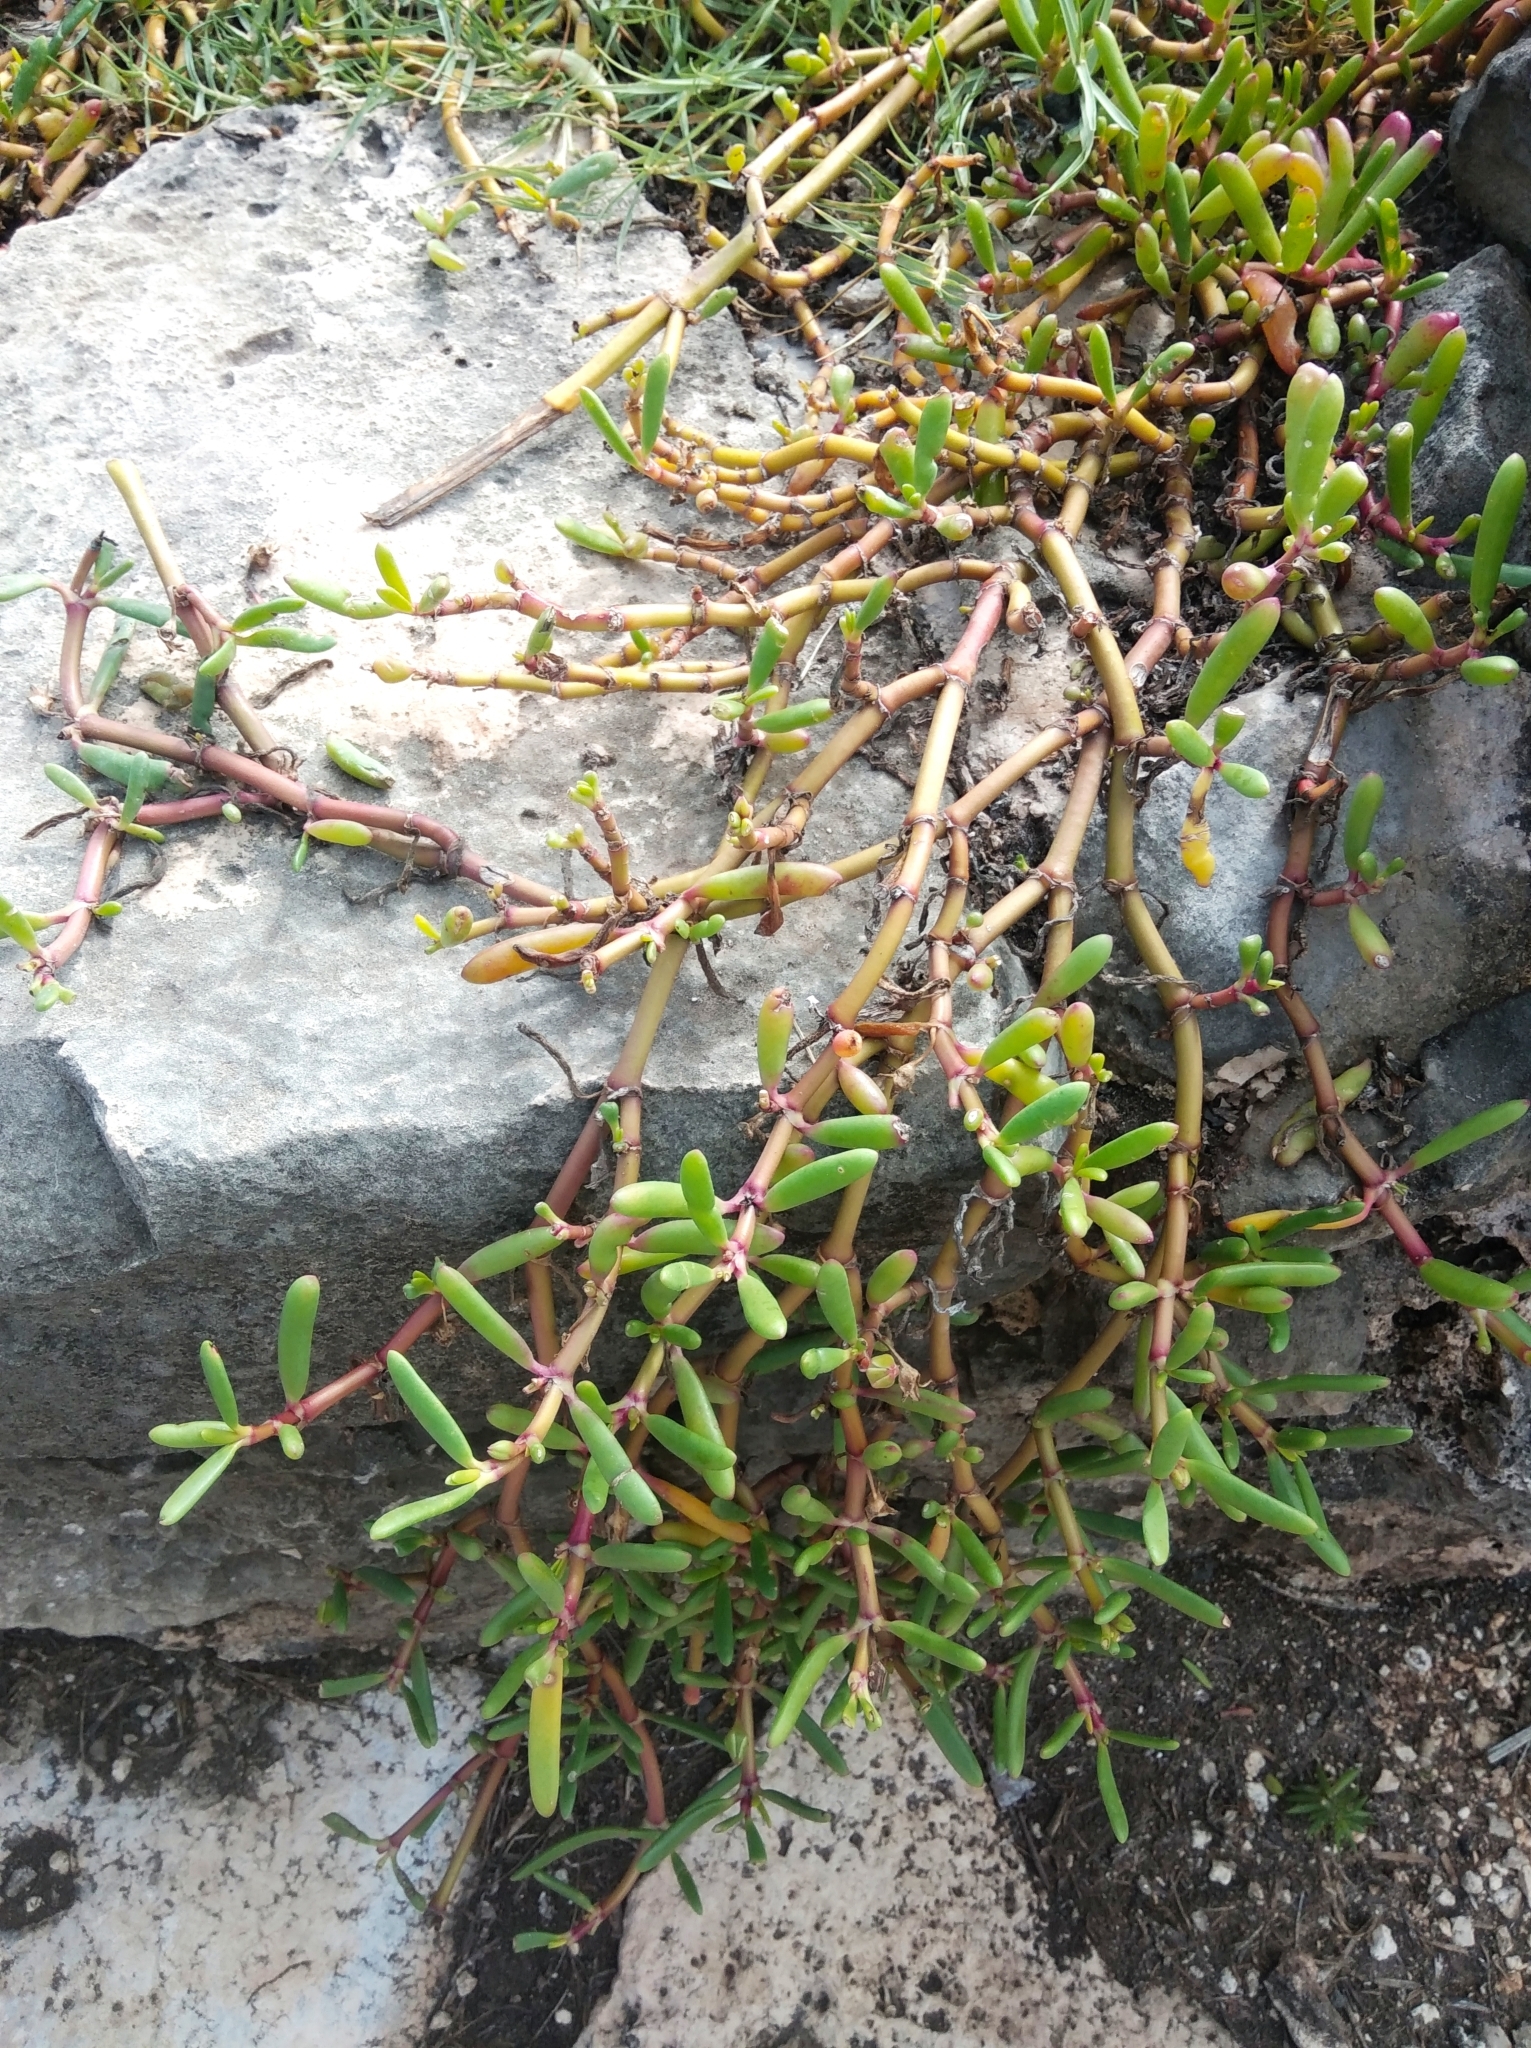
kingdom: Plantae
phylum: Tracheophyta
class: Magnoliopsida
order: Caryophyllales
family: Aizoaceae
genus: Sesuvium
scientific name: Sesuvium portulacastrum
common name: Sea-purslane
